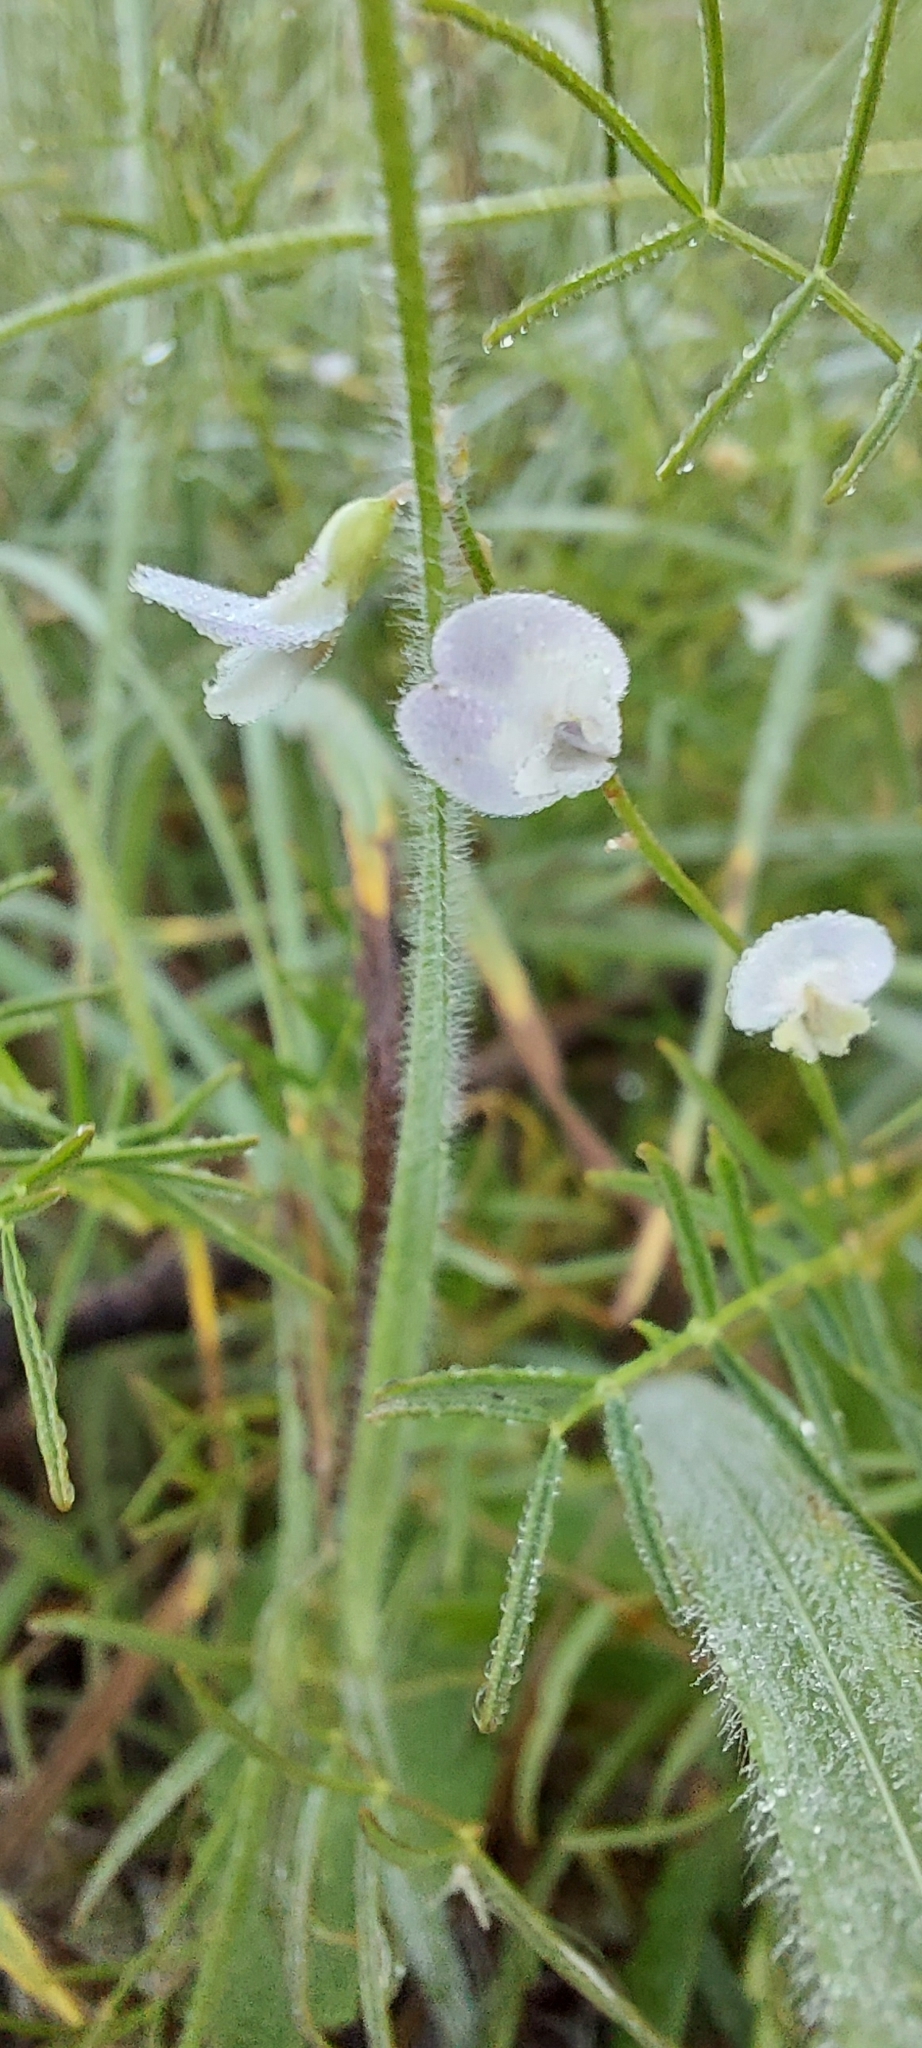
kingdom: Plantae
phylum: Tracheophyta
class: Magnoliopsida
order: Fabales
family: Fabaceae
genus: Astragalus
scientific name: Astragalus austriacus
